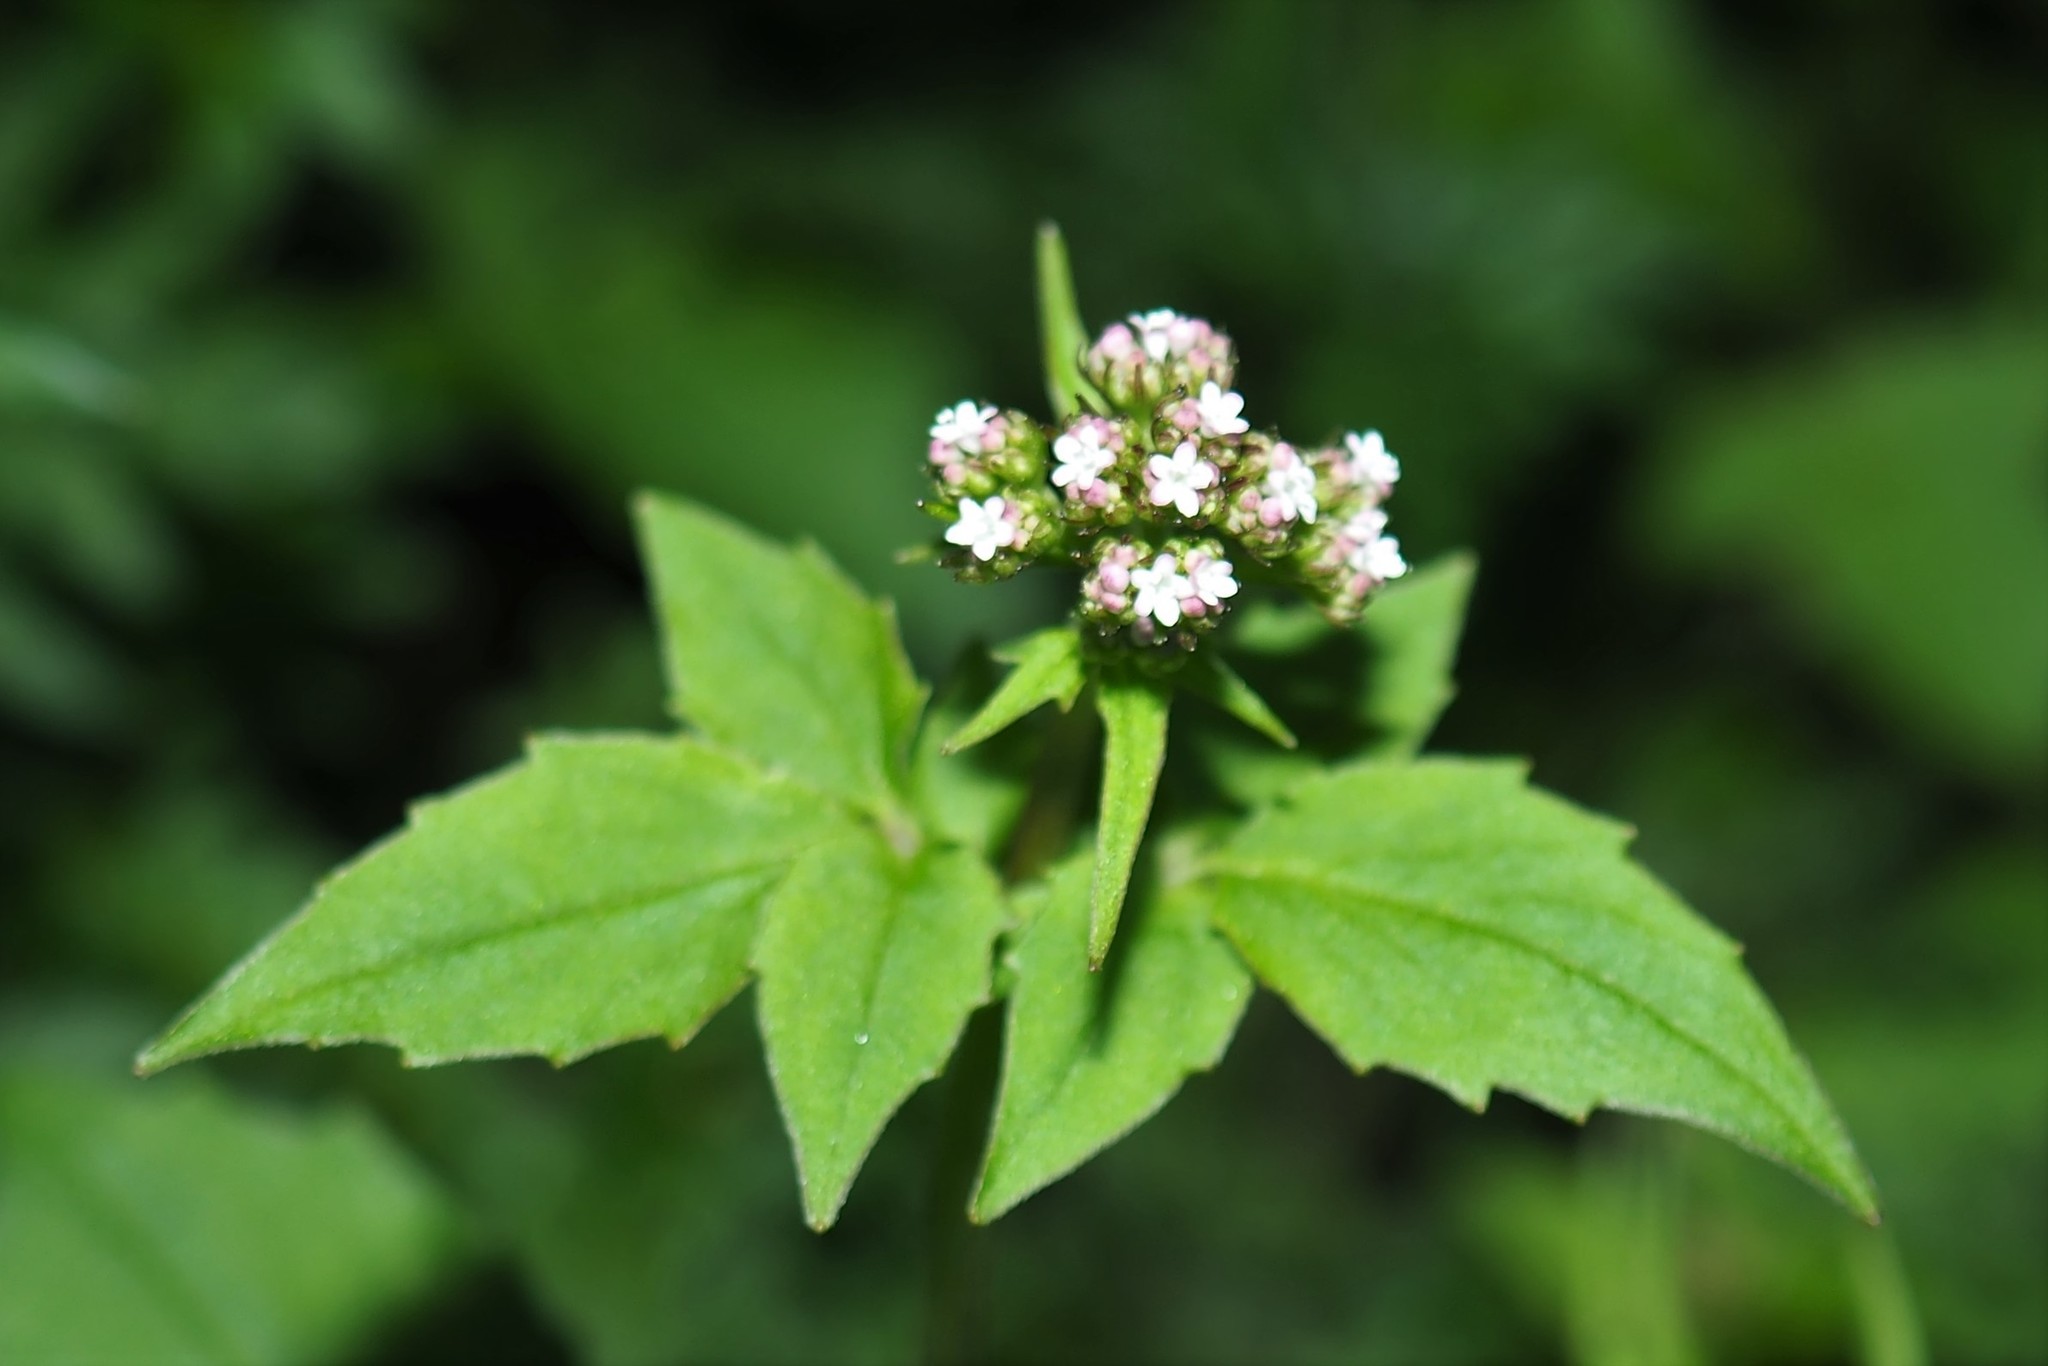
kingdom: Plantae
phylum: Tracheophyta
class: Magnoliopsida
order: Dipsacales
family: Caprifoliaceae
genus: Valeriana
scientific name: Valeriana flaccidissima
